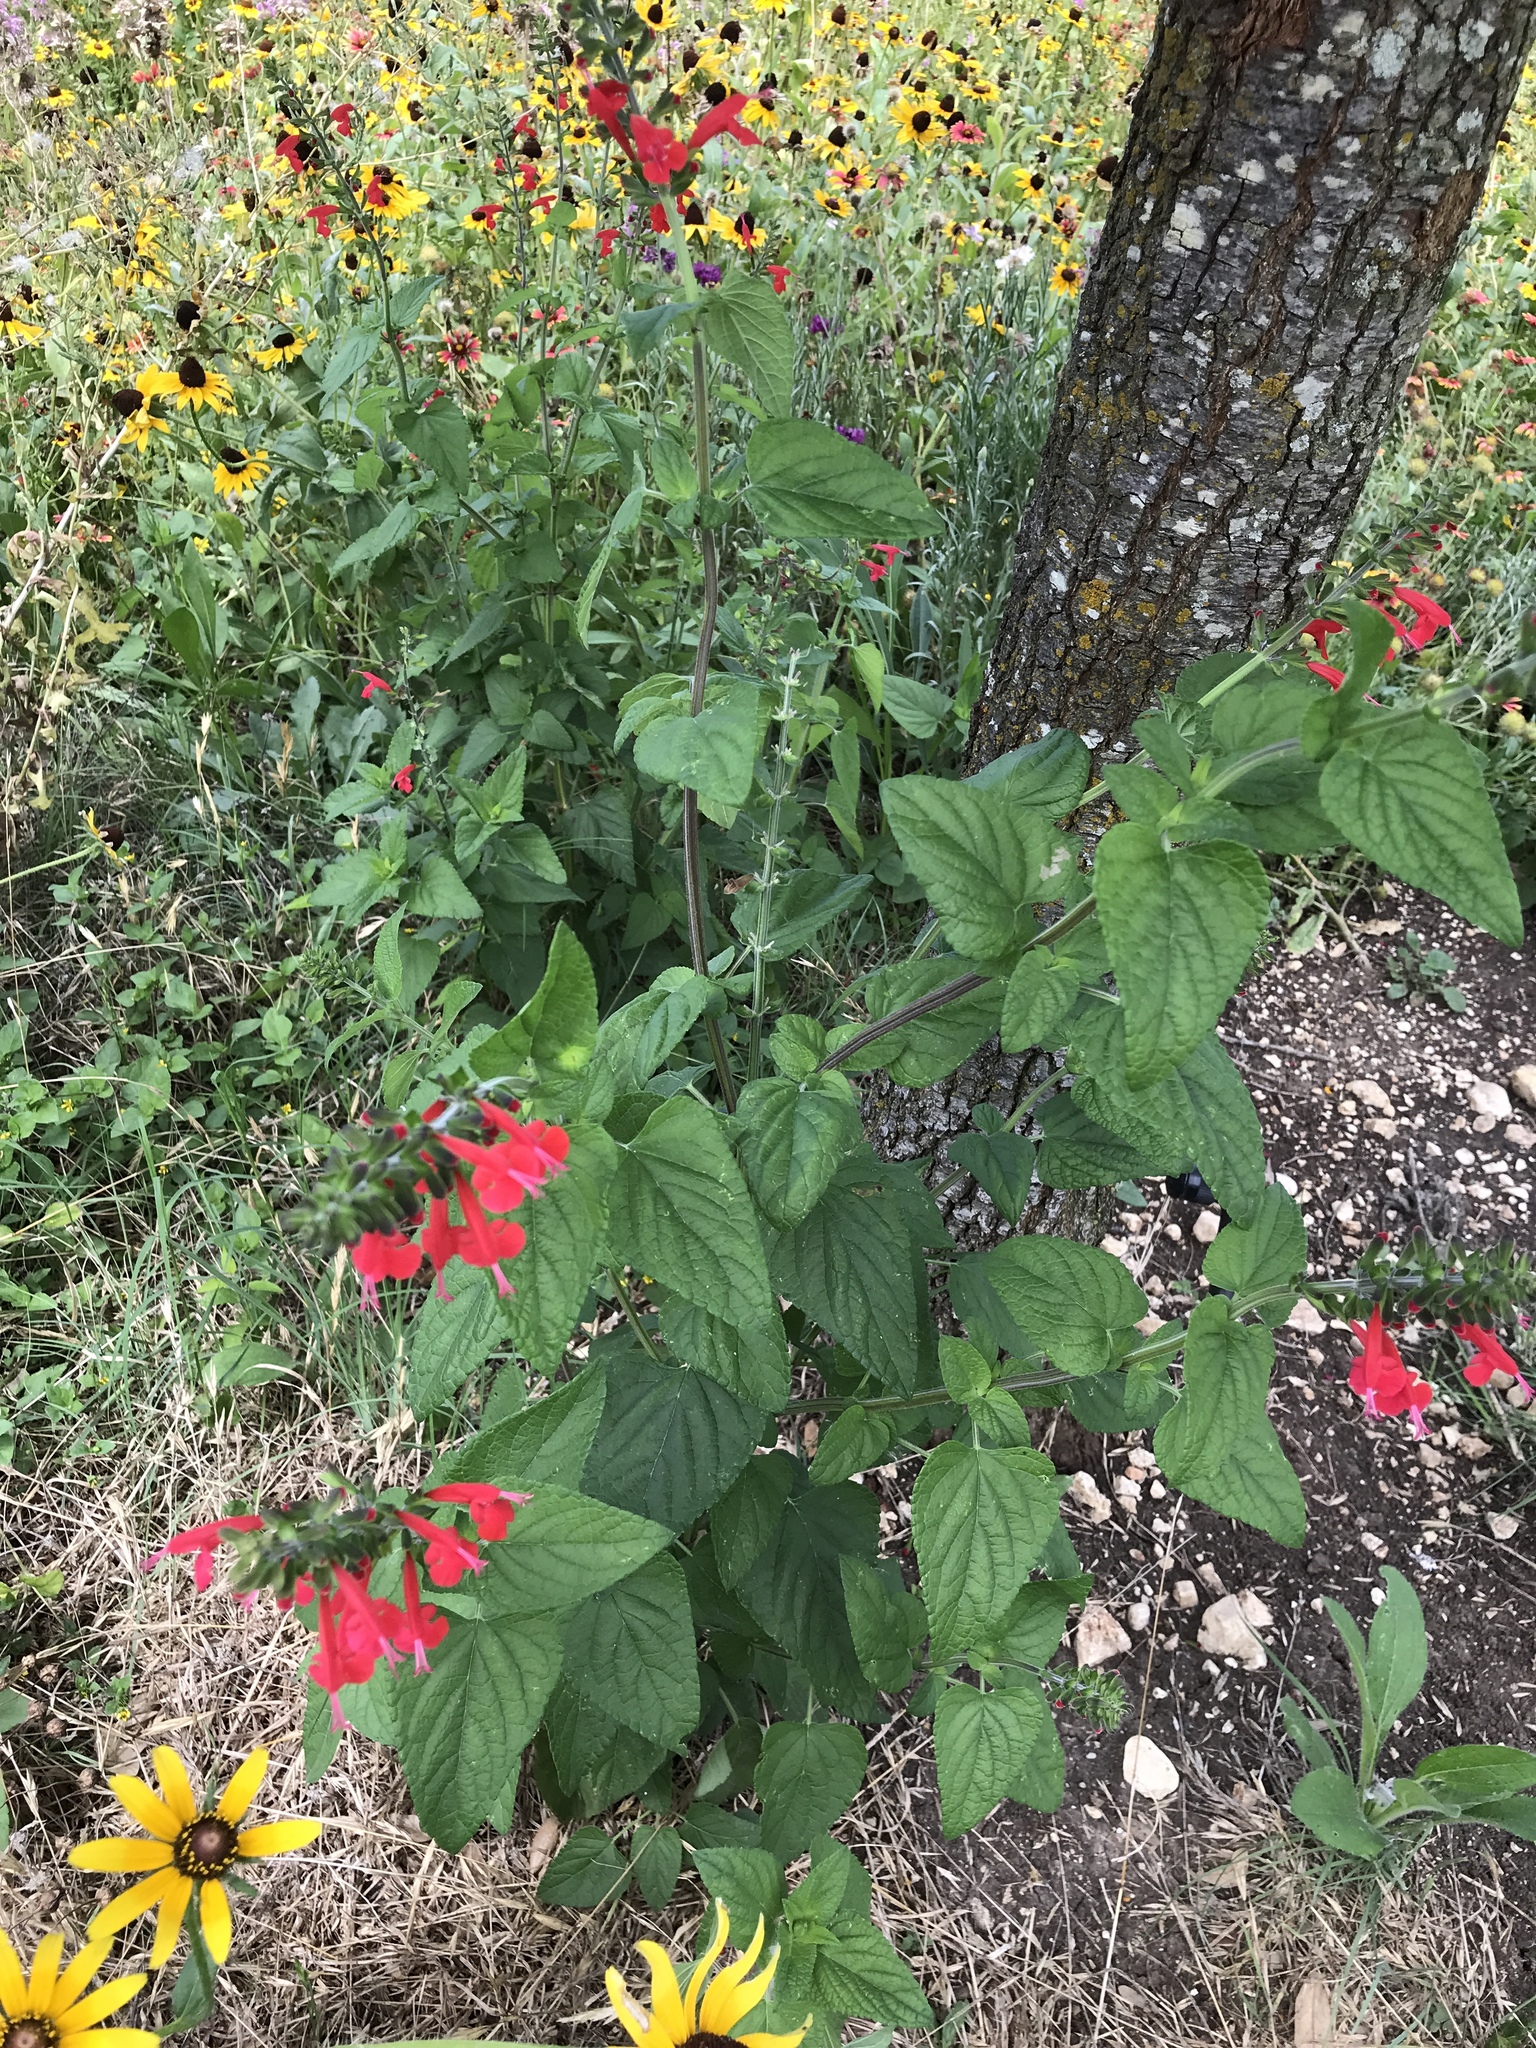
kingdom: Plantae
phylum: Tracheophyta
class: Magnoliopsida
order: Lamiales
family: Lamiaceae
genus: Salvia
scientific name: Salvia coccinea
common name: Blood sage
